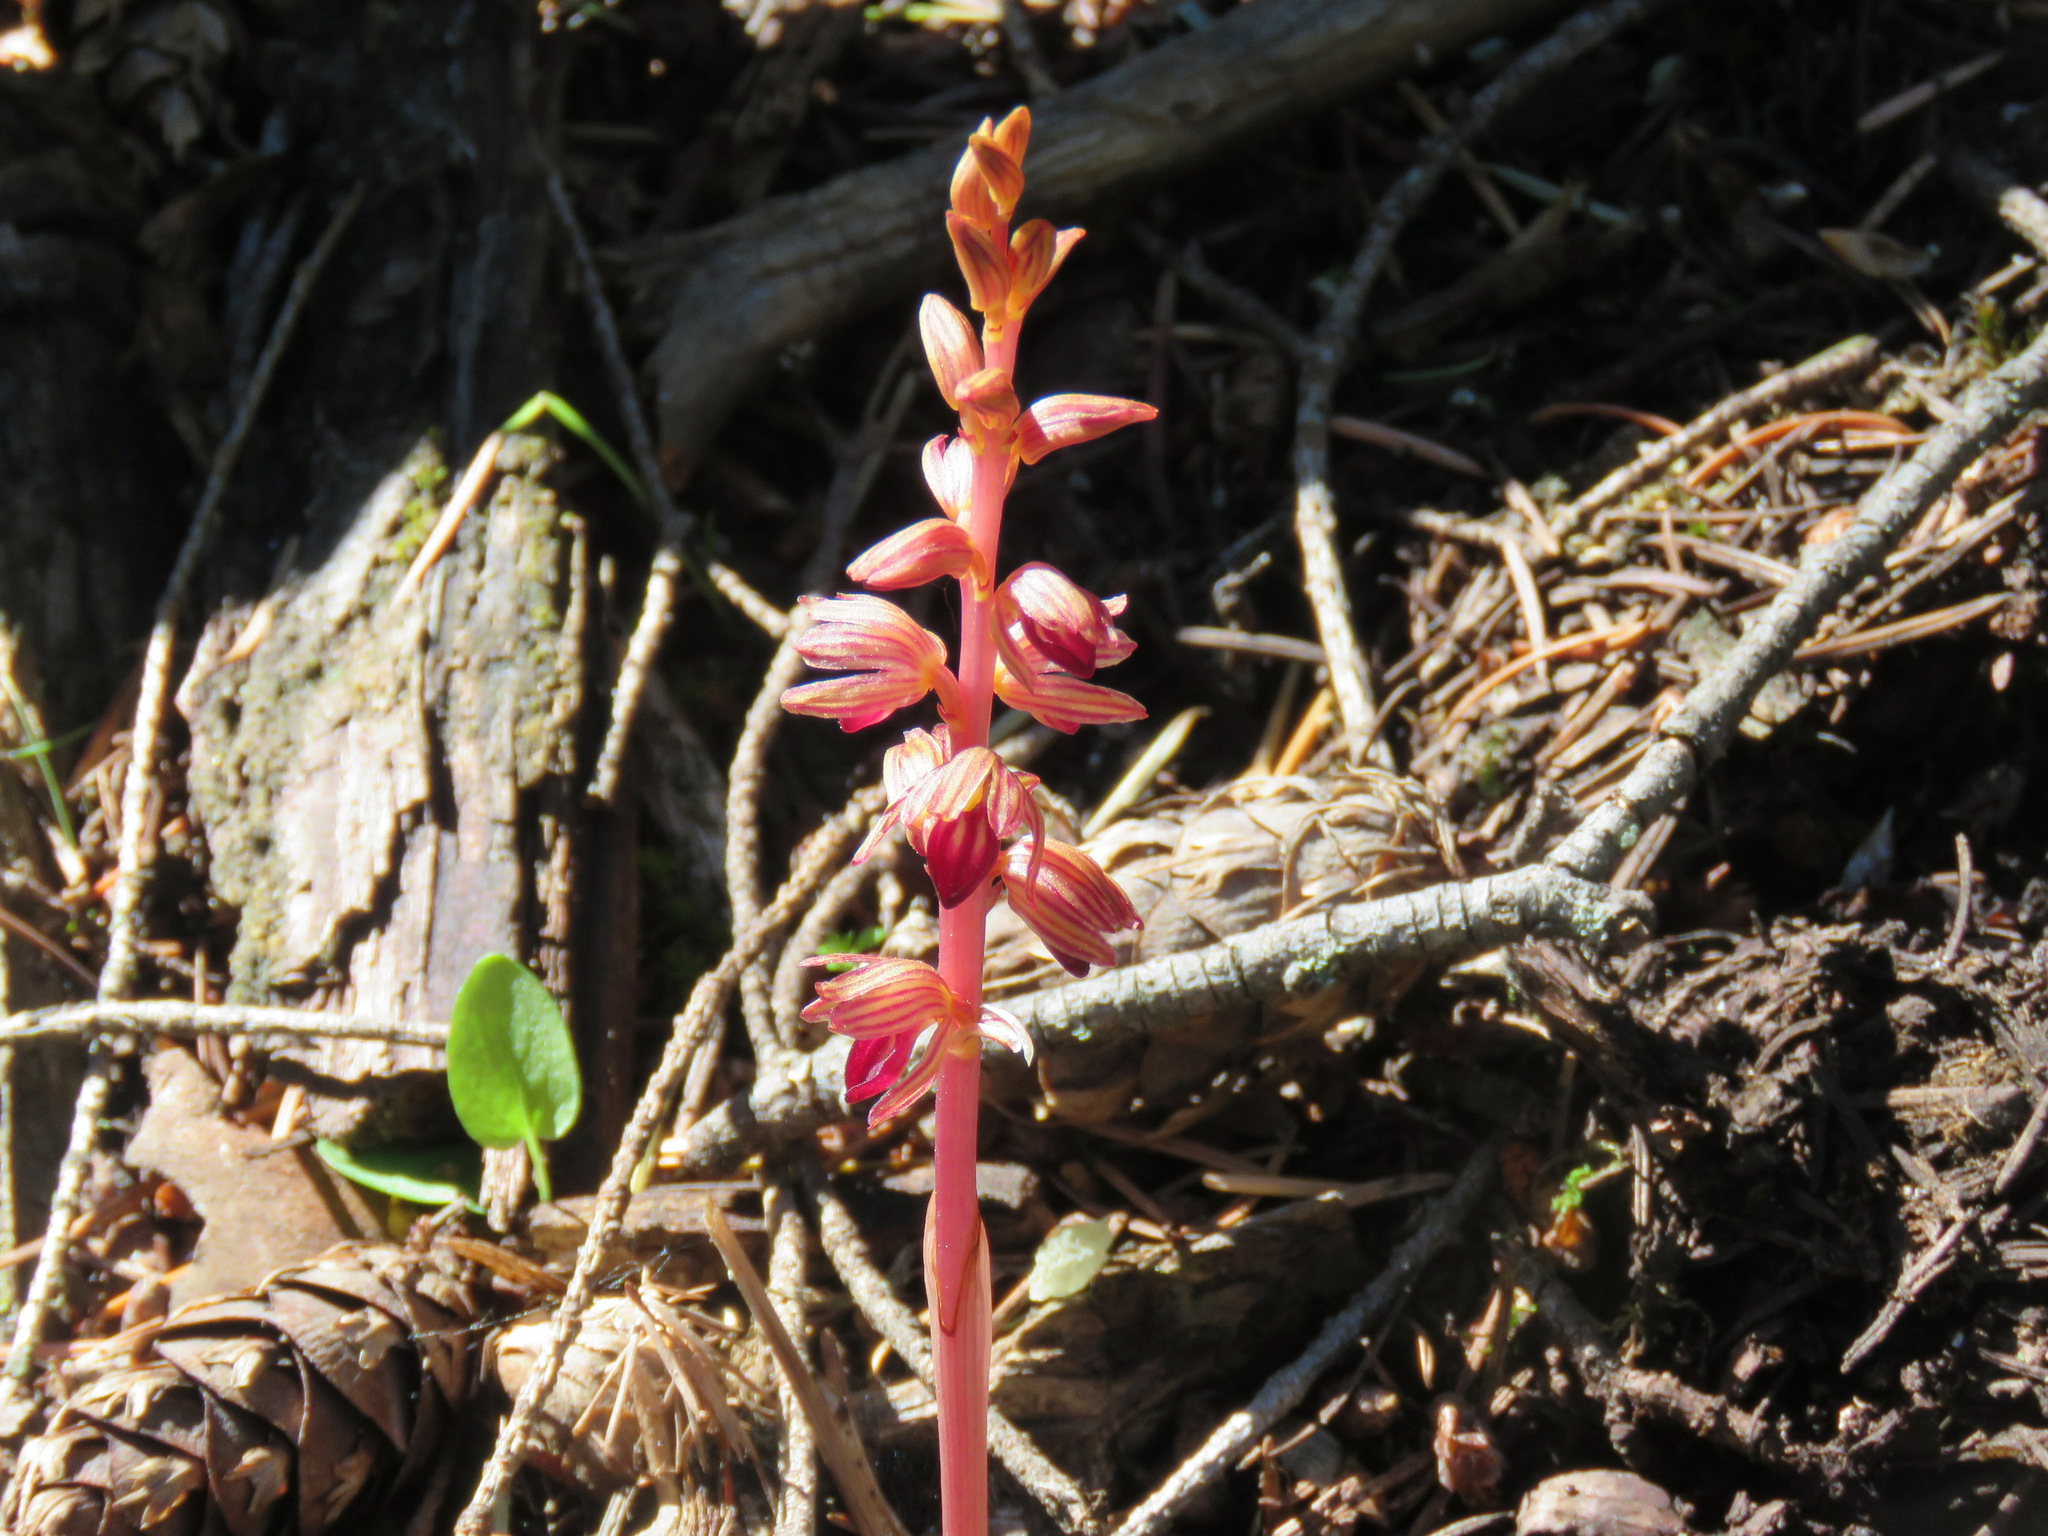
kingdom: Plantae
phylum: Tracheophyta
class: Liliopsida
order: Asparagales
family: Orchidaceae
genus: Corallorhiza
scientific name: Corallorhiza striata
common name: Hooded coralroot
